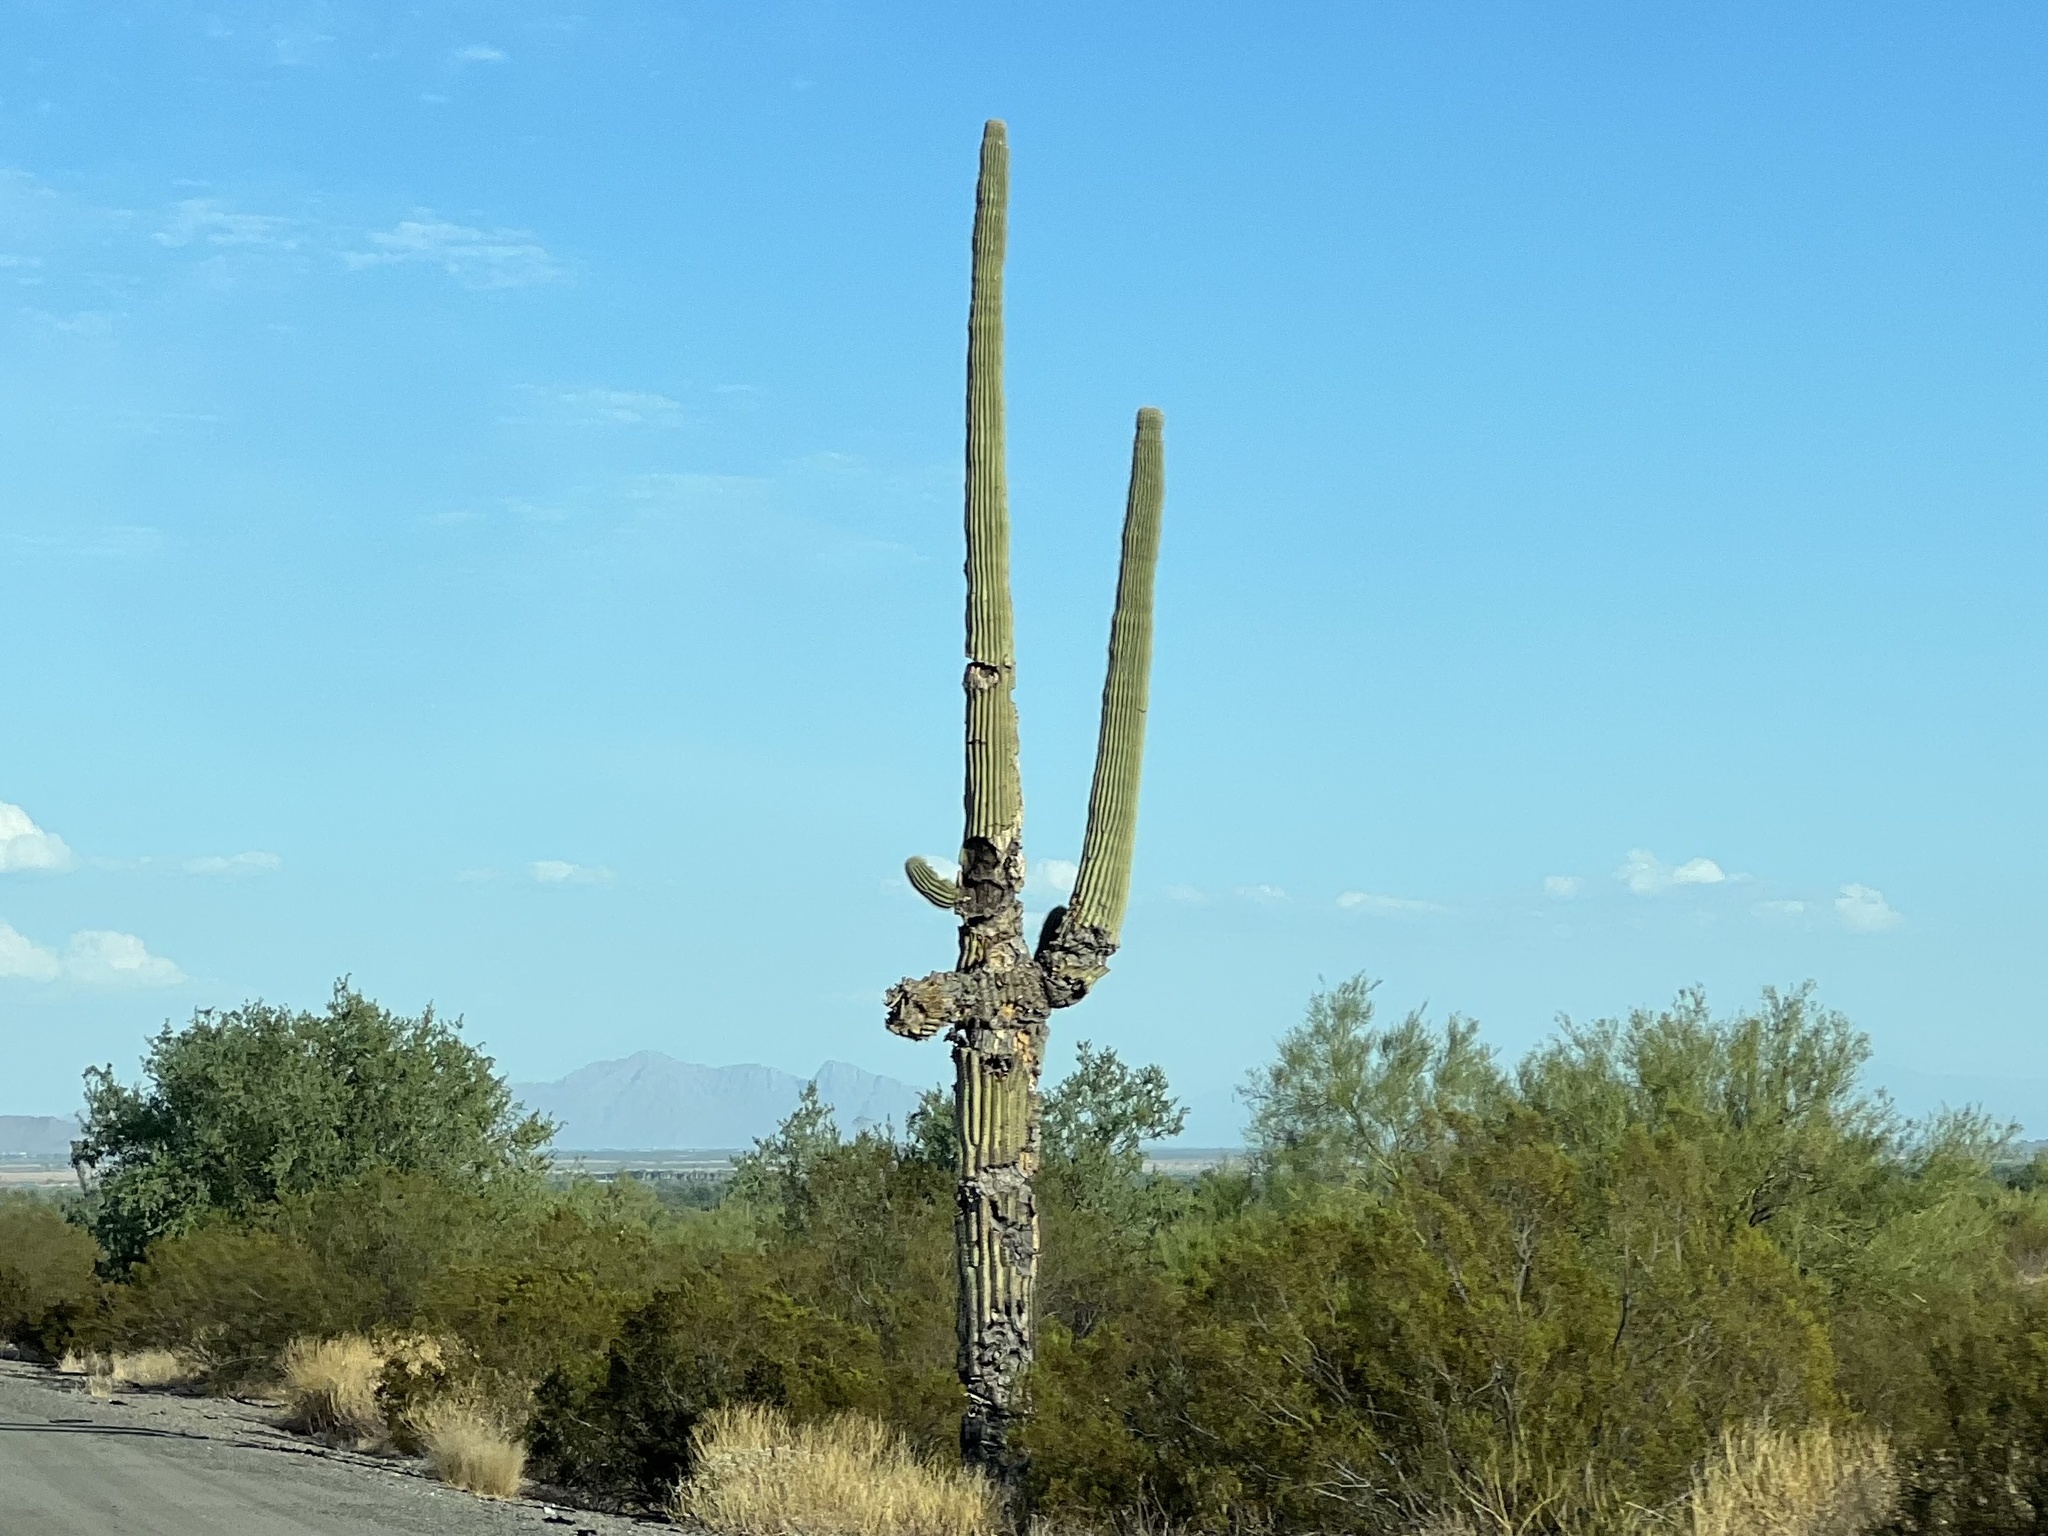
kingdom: Plantae
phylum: Tracheophyta
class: Magnoliopsida
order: Caryophyllales
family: Cactaceae
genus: Carnegiea
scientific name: Carnegiea gigantea
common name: Saguaro
